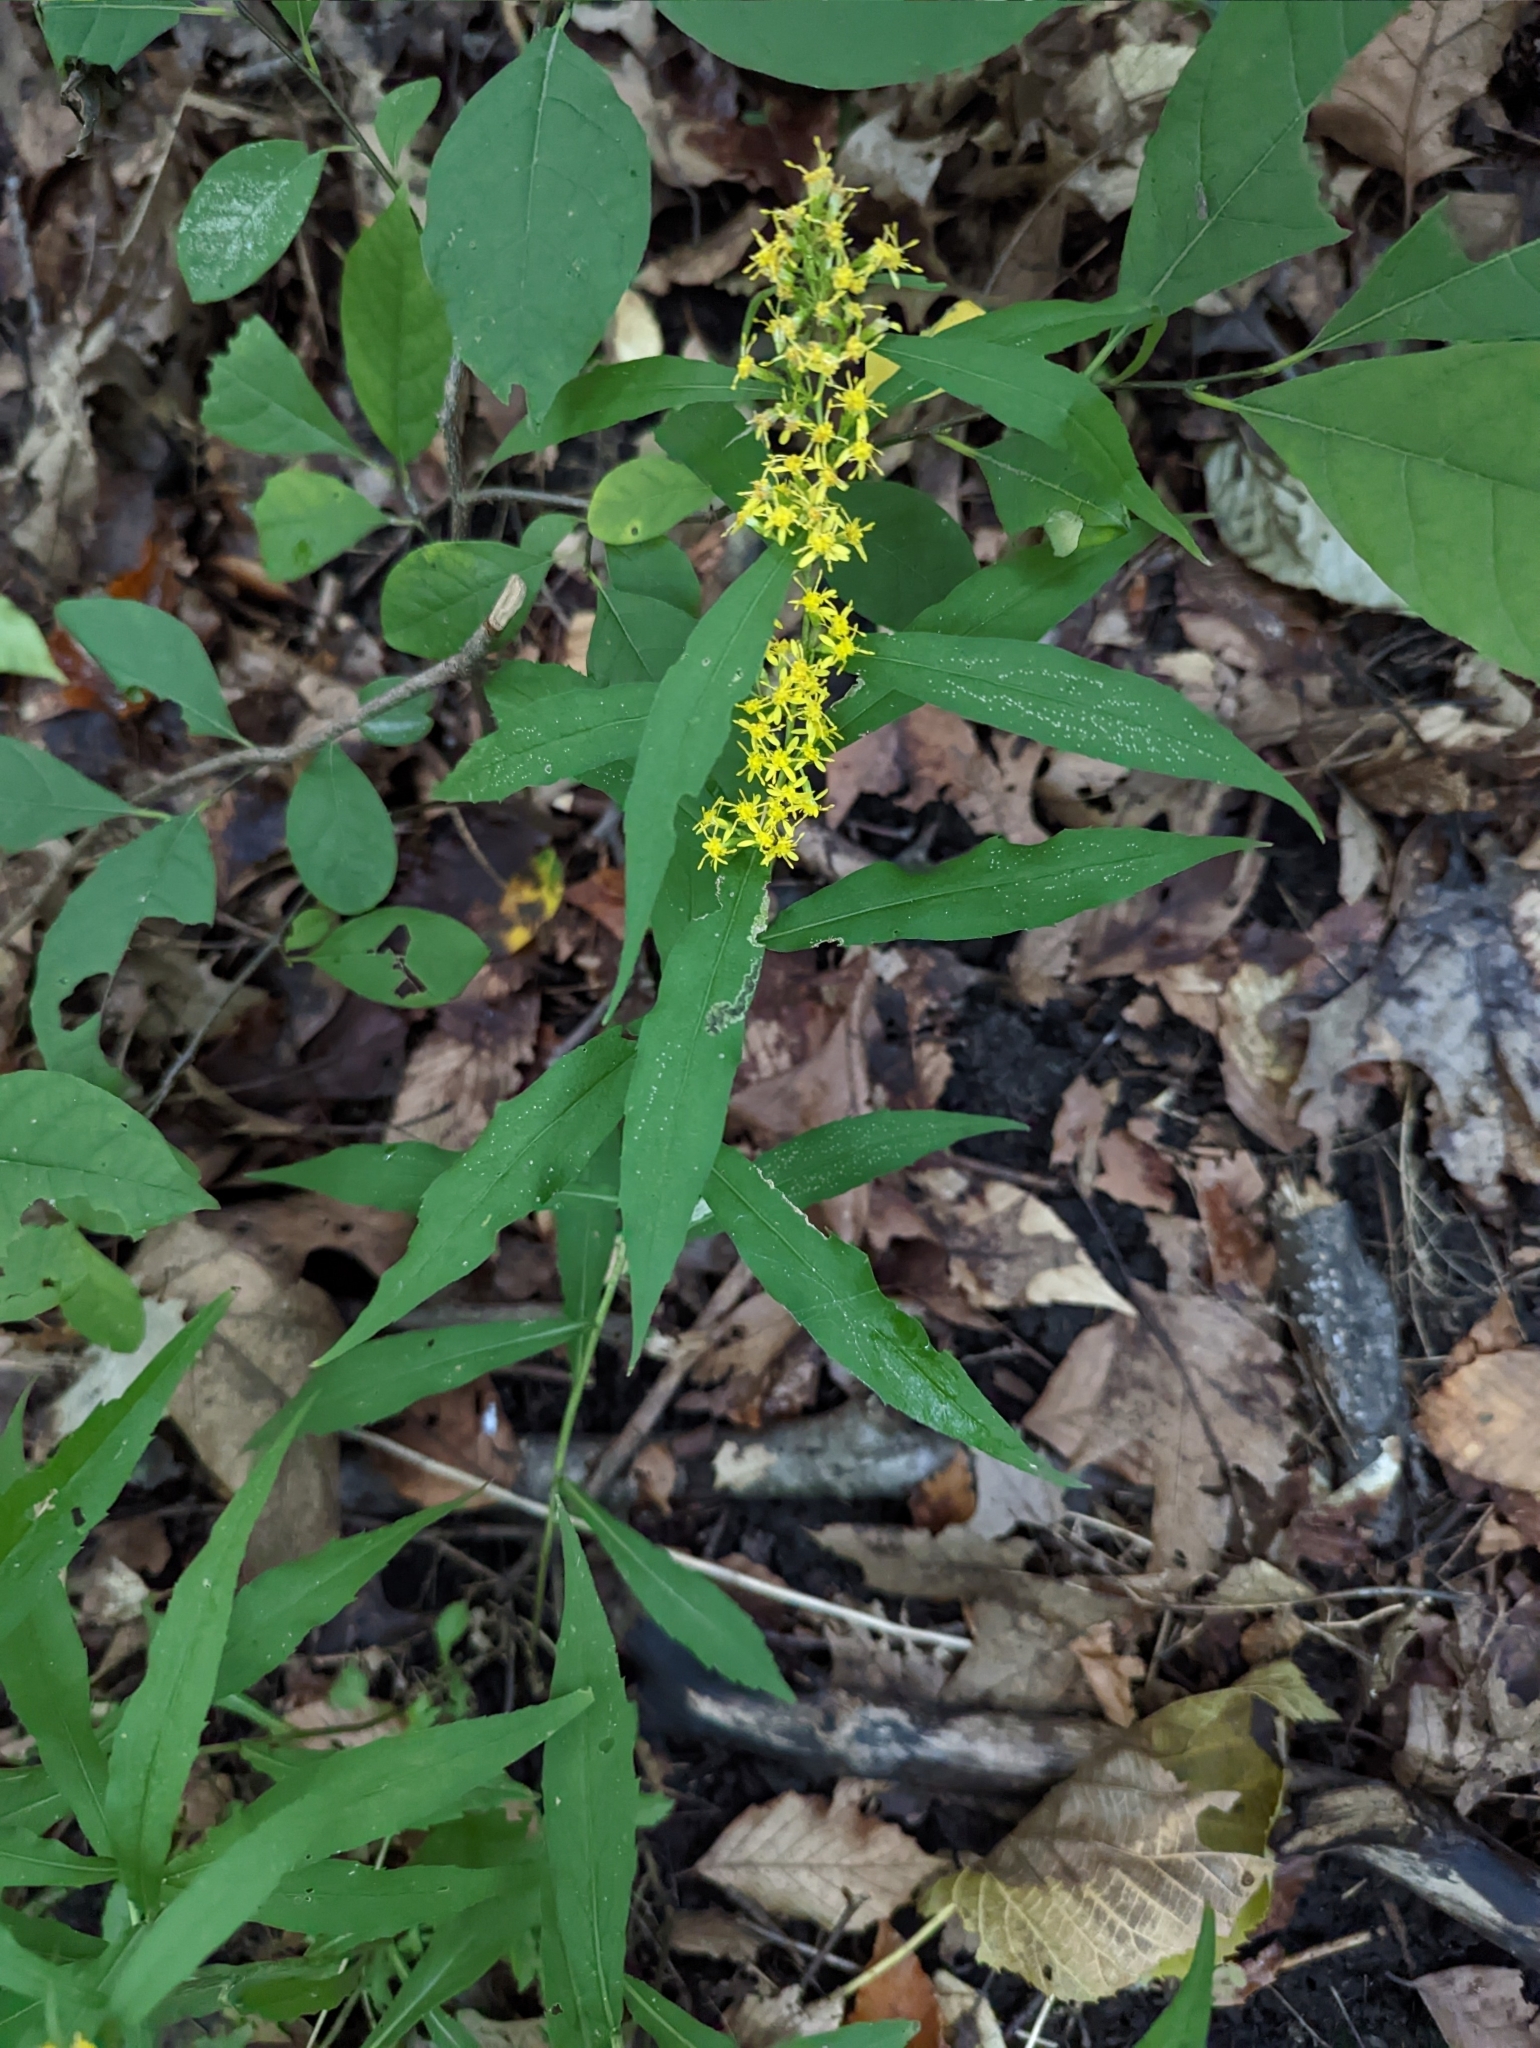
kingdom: Plantae
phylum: Tracheophyta
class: Magnoliopsida
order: Asterales
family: Asteraceae
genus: Solidago
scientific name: Solidago caesia
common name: Woodland goldenrod
